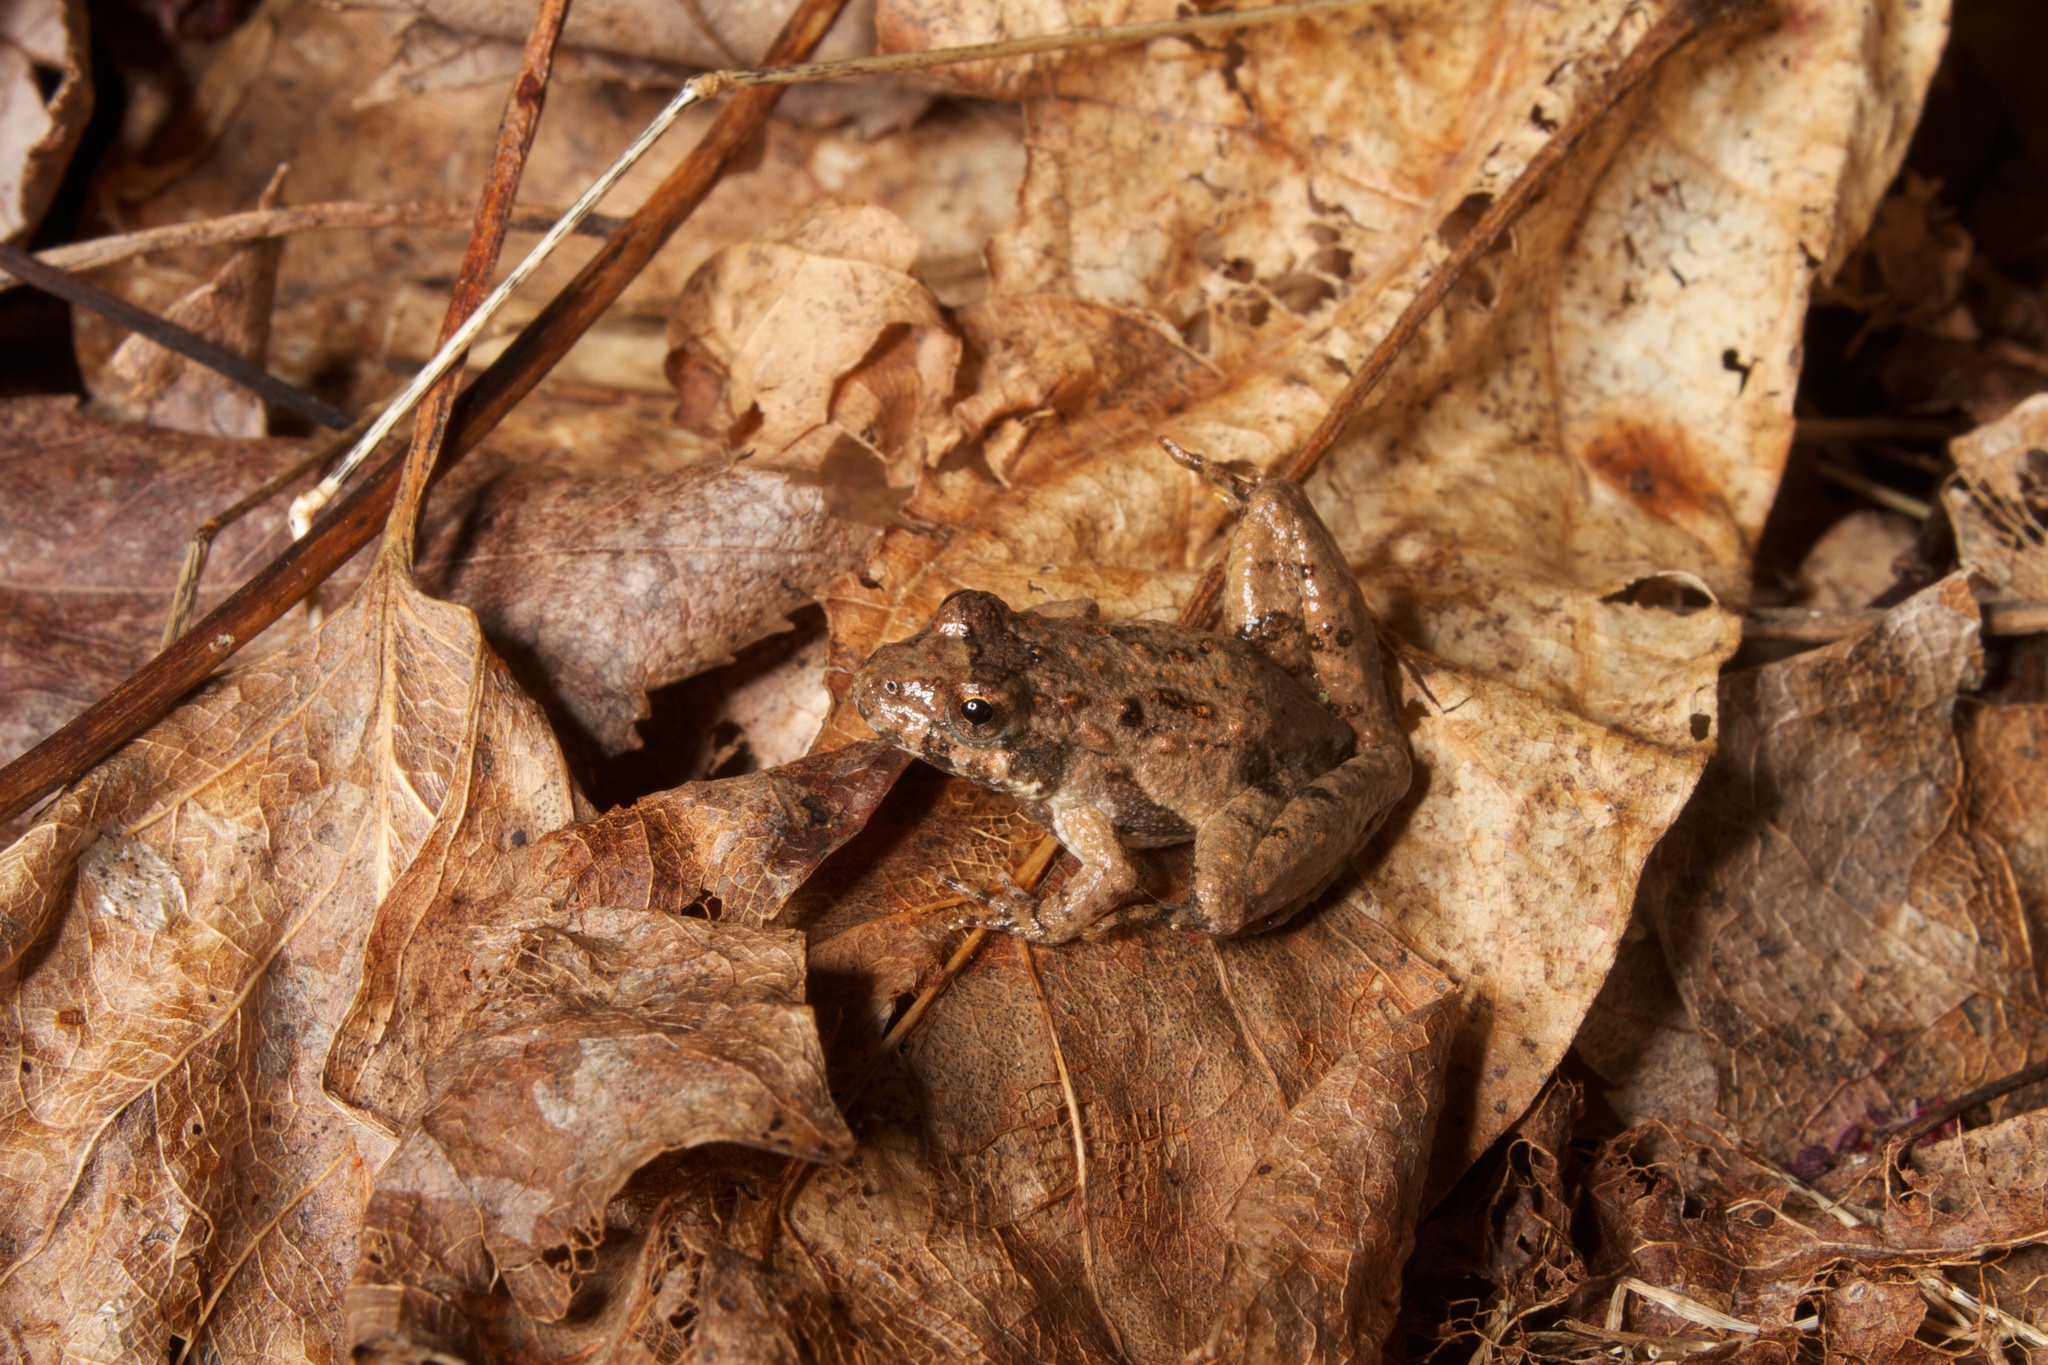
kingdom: Animalia
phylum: Chordata
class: Amphibia
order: Anura
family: Hylidae
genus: Acris
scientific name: Acris crepitans
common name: Northern cricket frog
